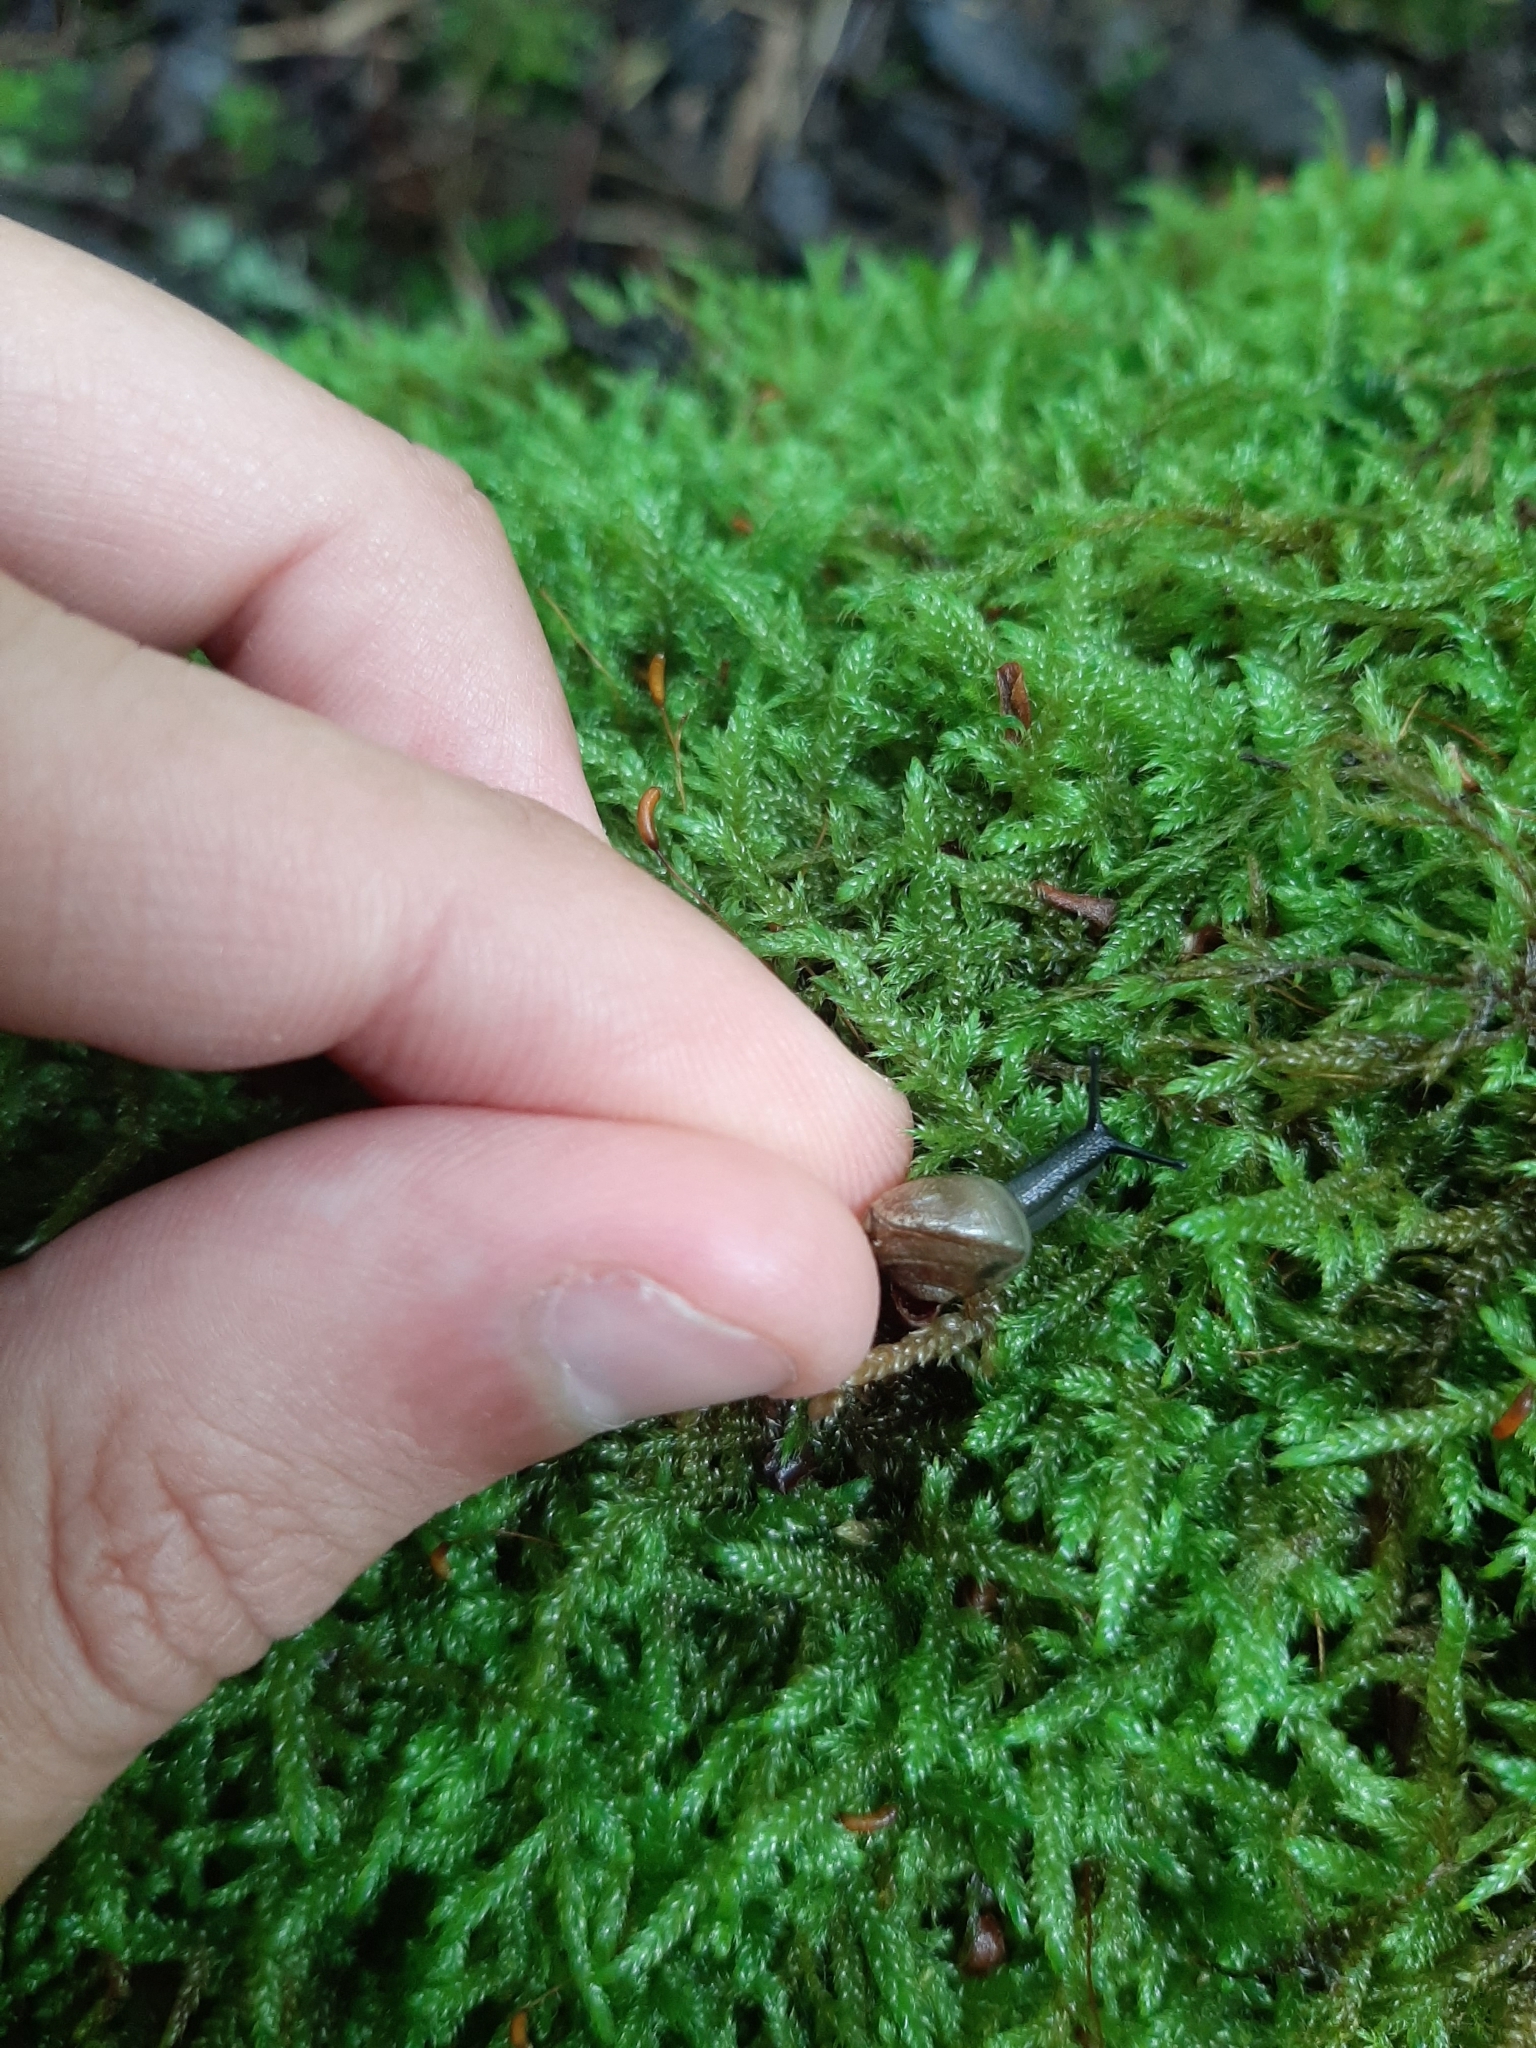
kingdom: Animalia
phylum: Mollusca
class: Gastropoda
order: Stylommatophora
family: Camaenidae
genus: Fruticicola
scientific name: Fruticicola fruticum
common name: Bush snail
